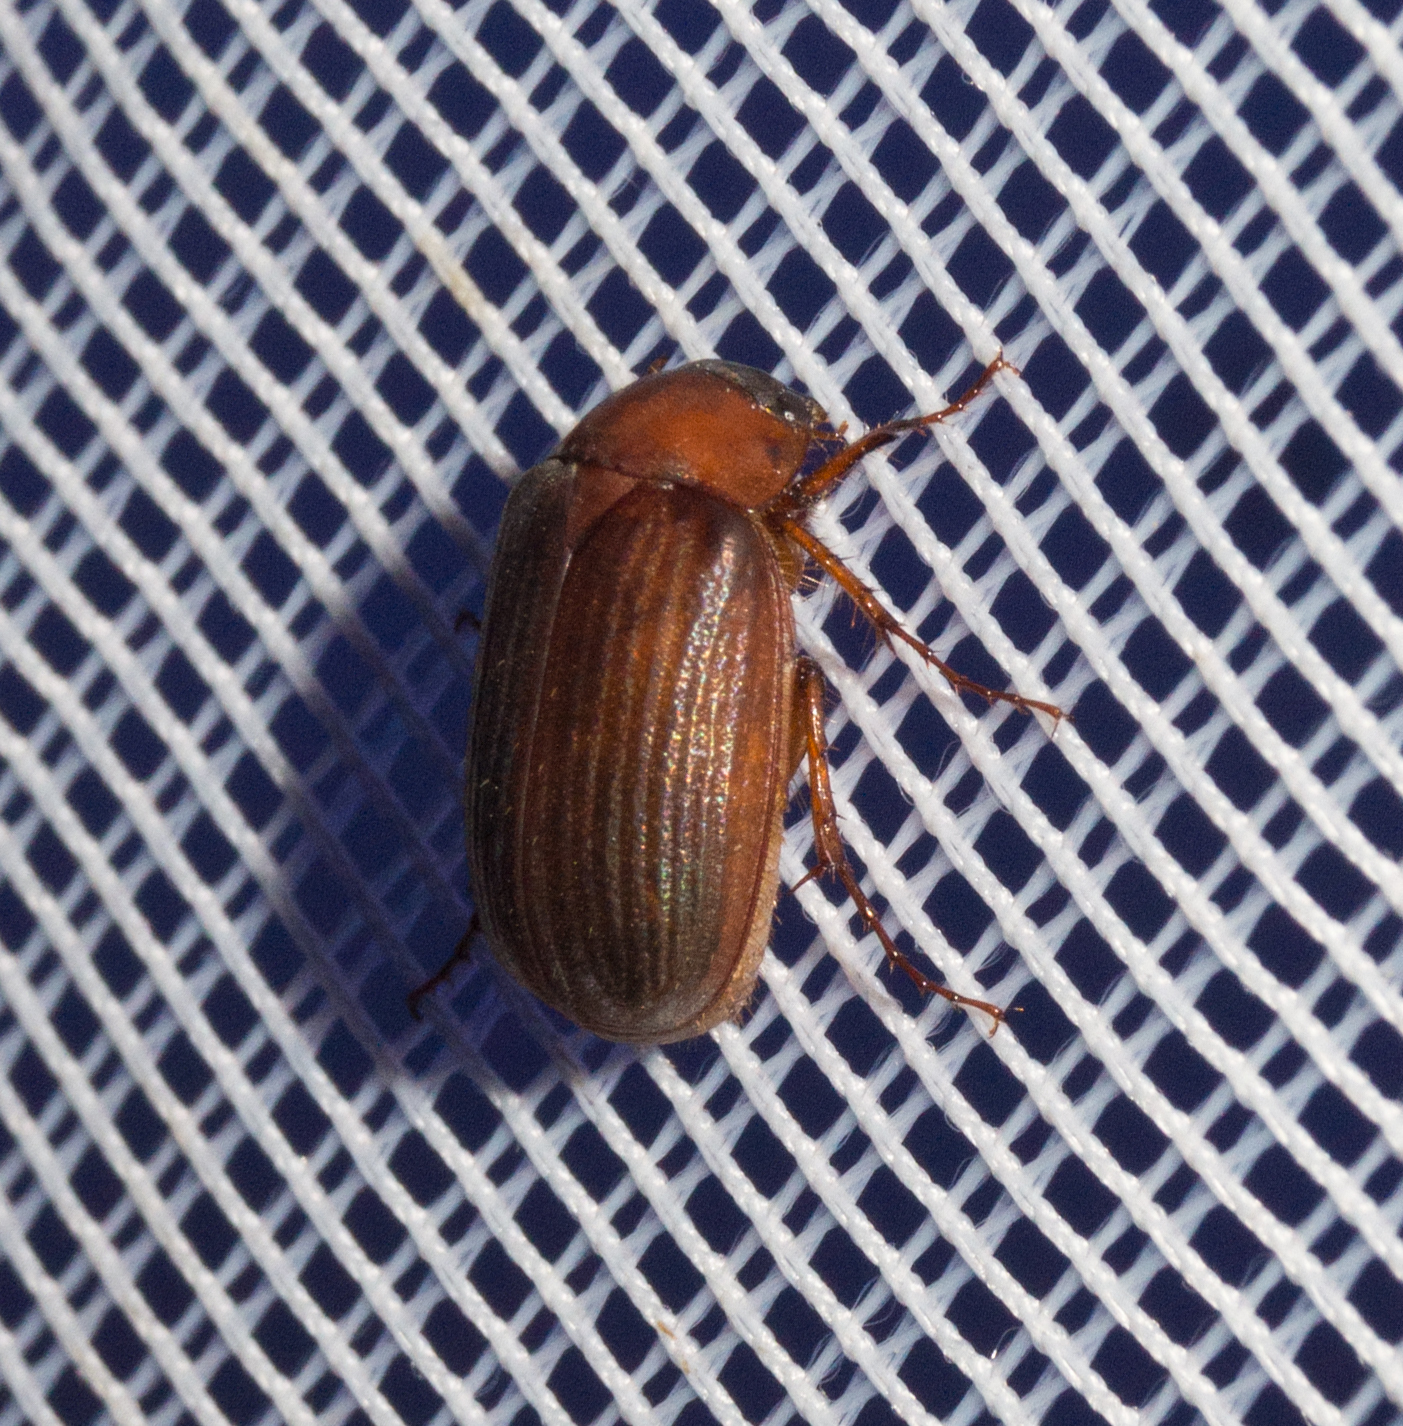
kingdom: Animalia
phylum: Arthropoda
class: Insecta
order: Coleoptera
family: Scarabaeidae
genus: Serica
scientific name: Serica brunnea
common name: Brown chafer
